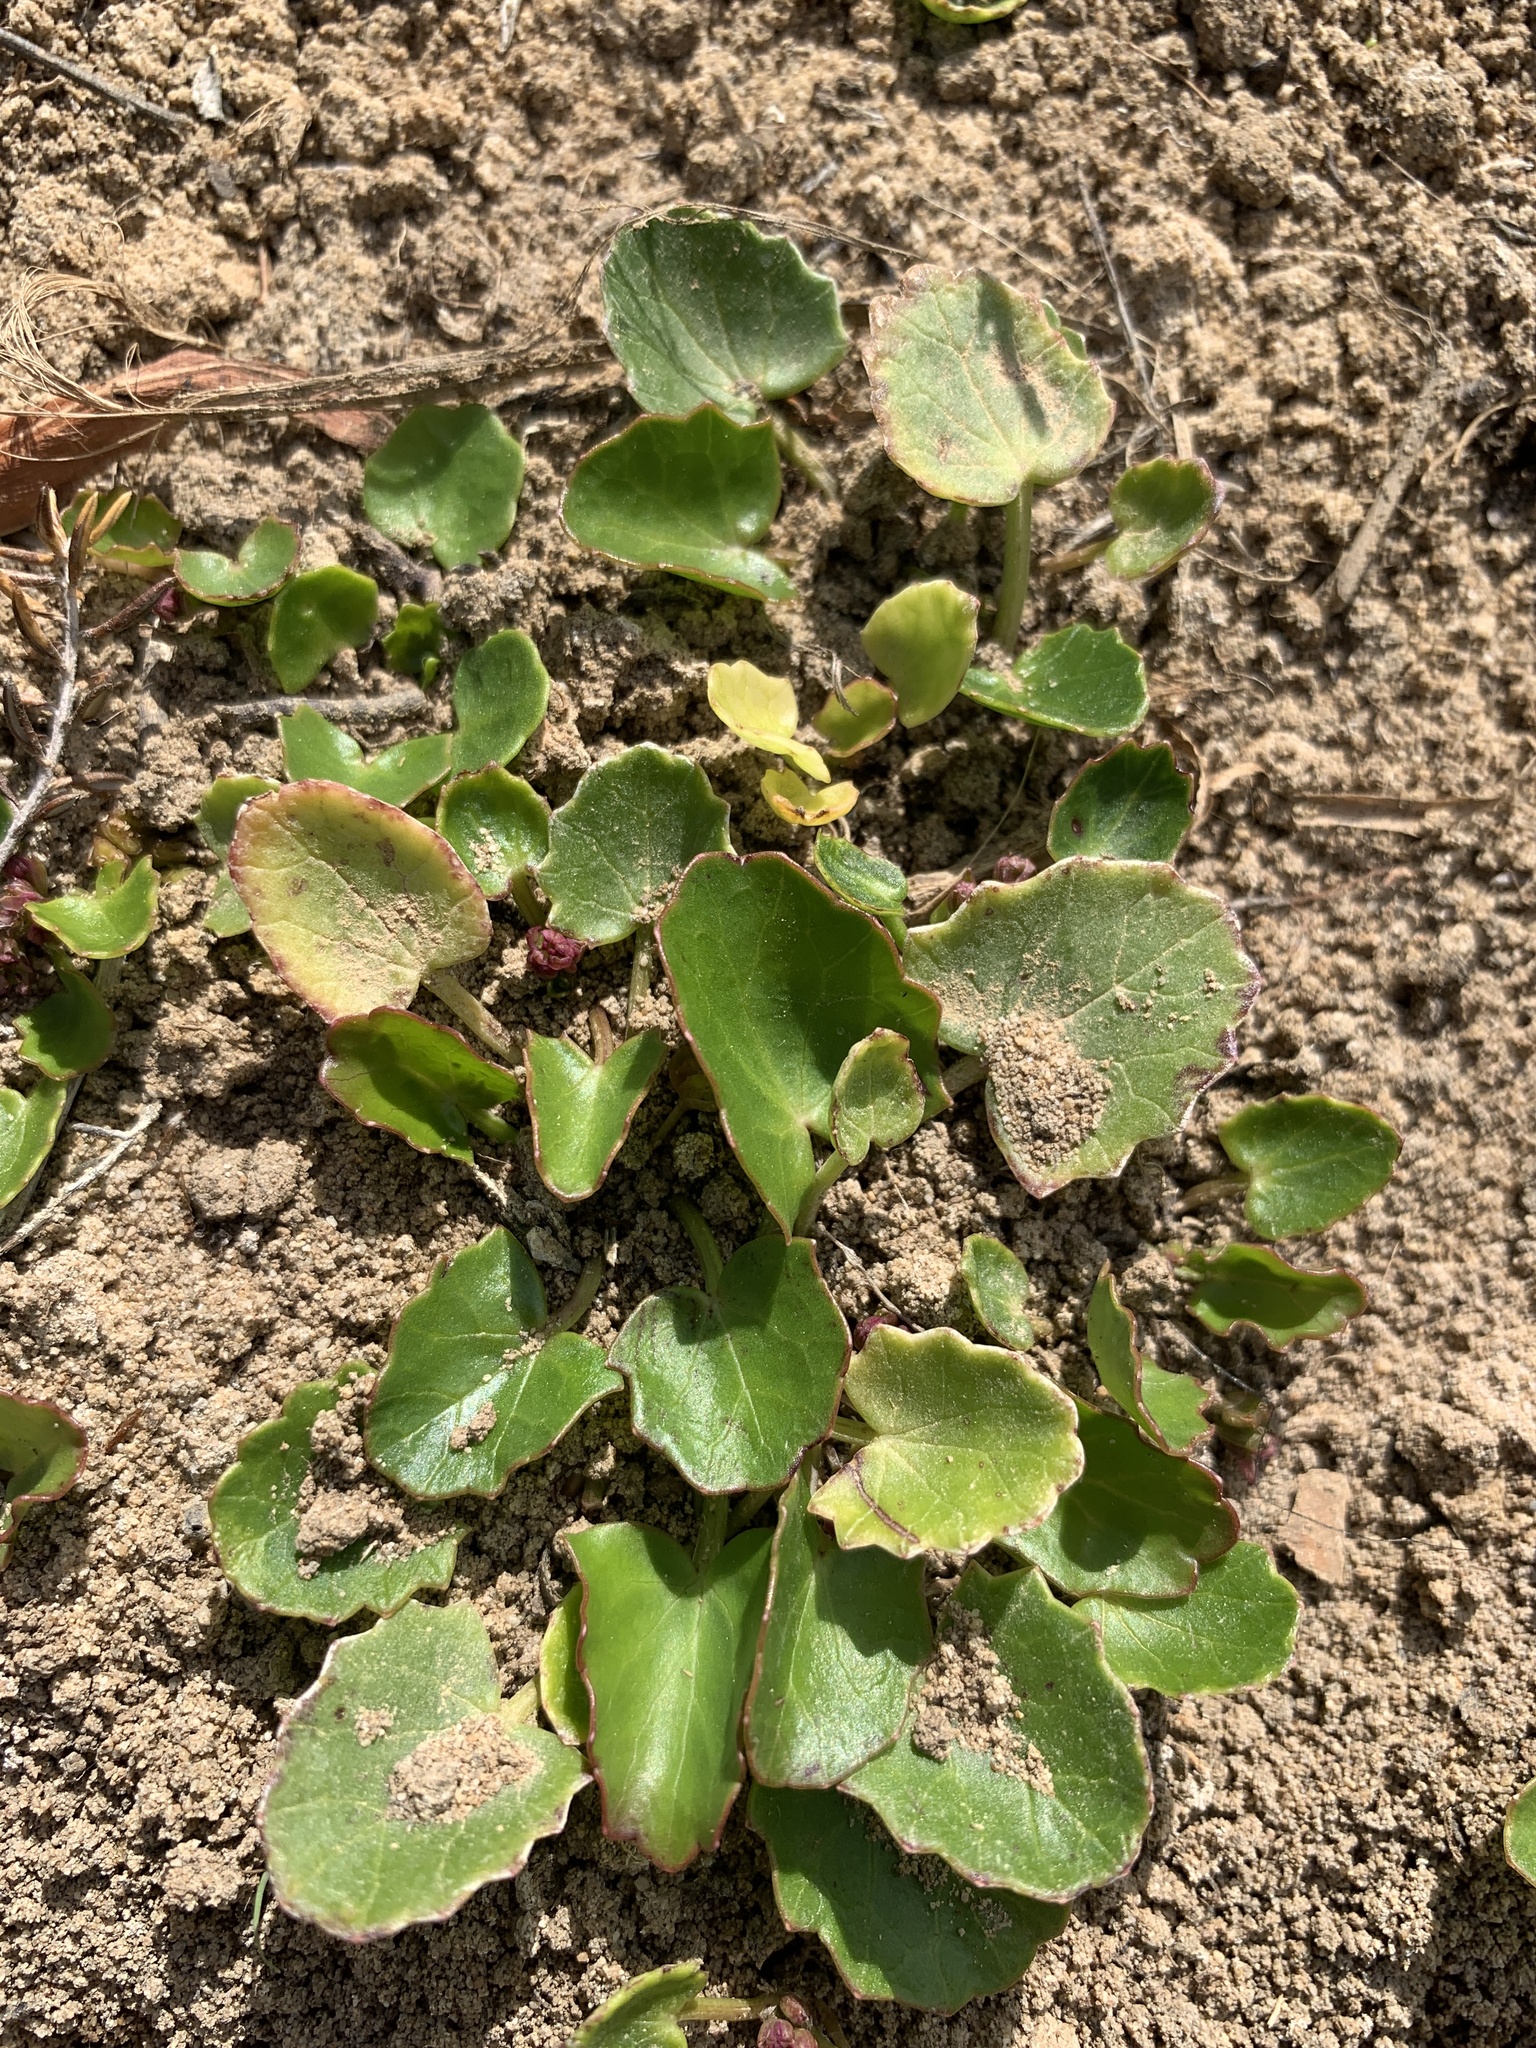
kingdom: Plantae
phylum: Tracheophyta
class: Magnoliopsida
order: Apiales
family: Apiaceae
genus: Centella
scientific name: Centella asiatica
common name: Spadeleaf
